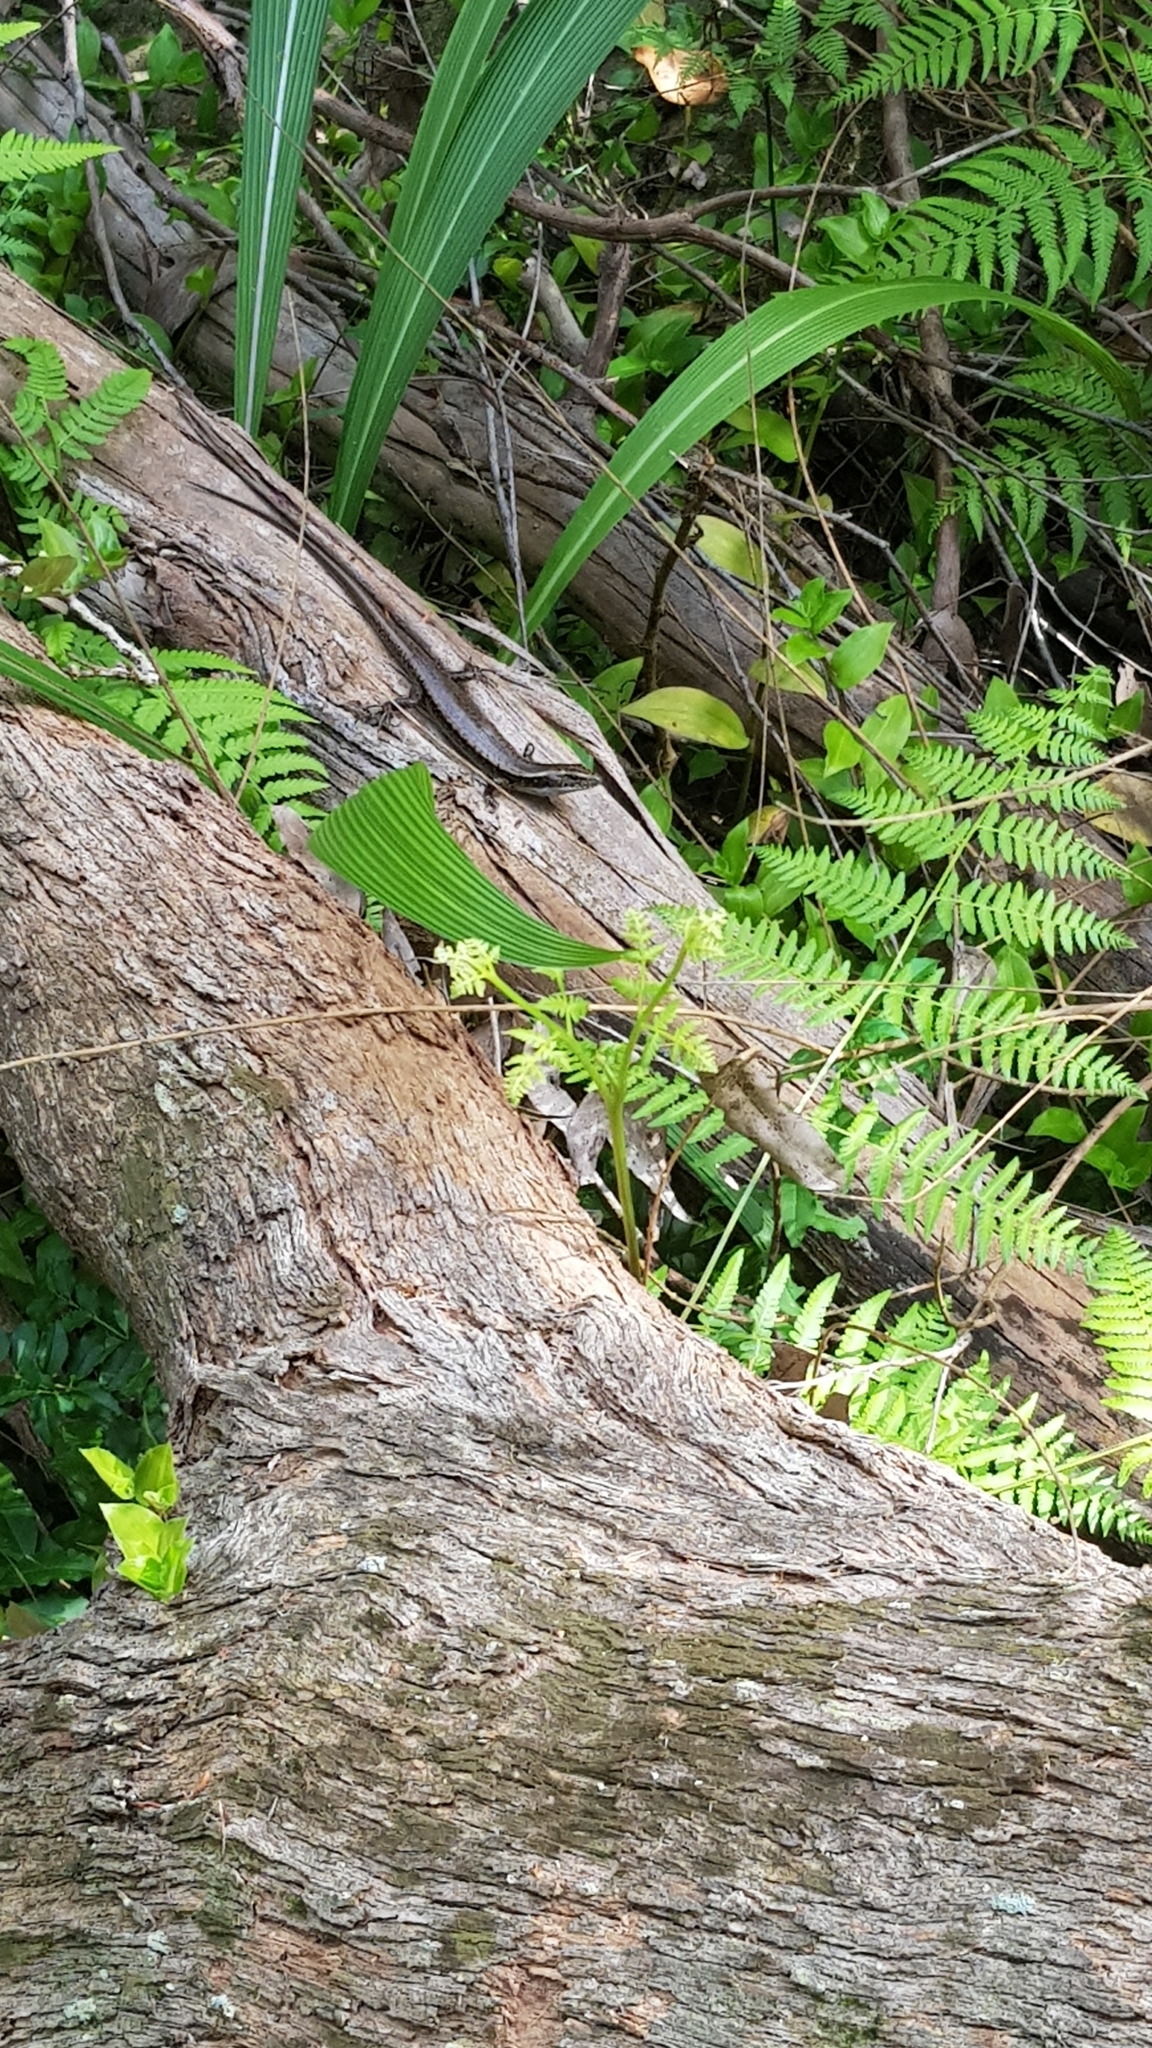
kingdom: Animalia
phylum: Chordata
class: Squamata
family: Scincidae
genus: Eulamprus
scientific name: Eulamprus quoyii
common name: Eastern water skink
